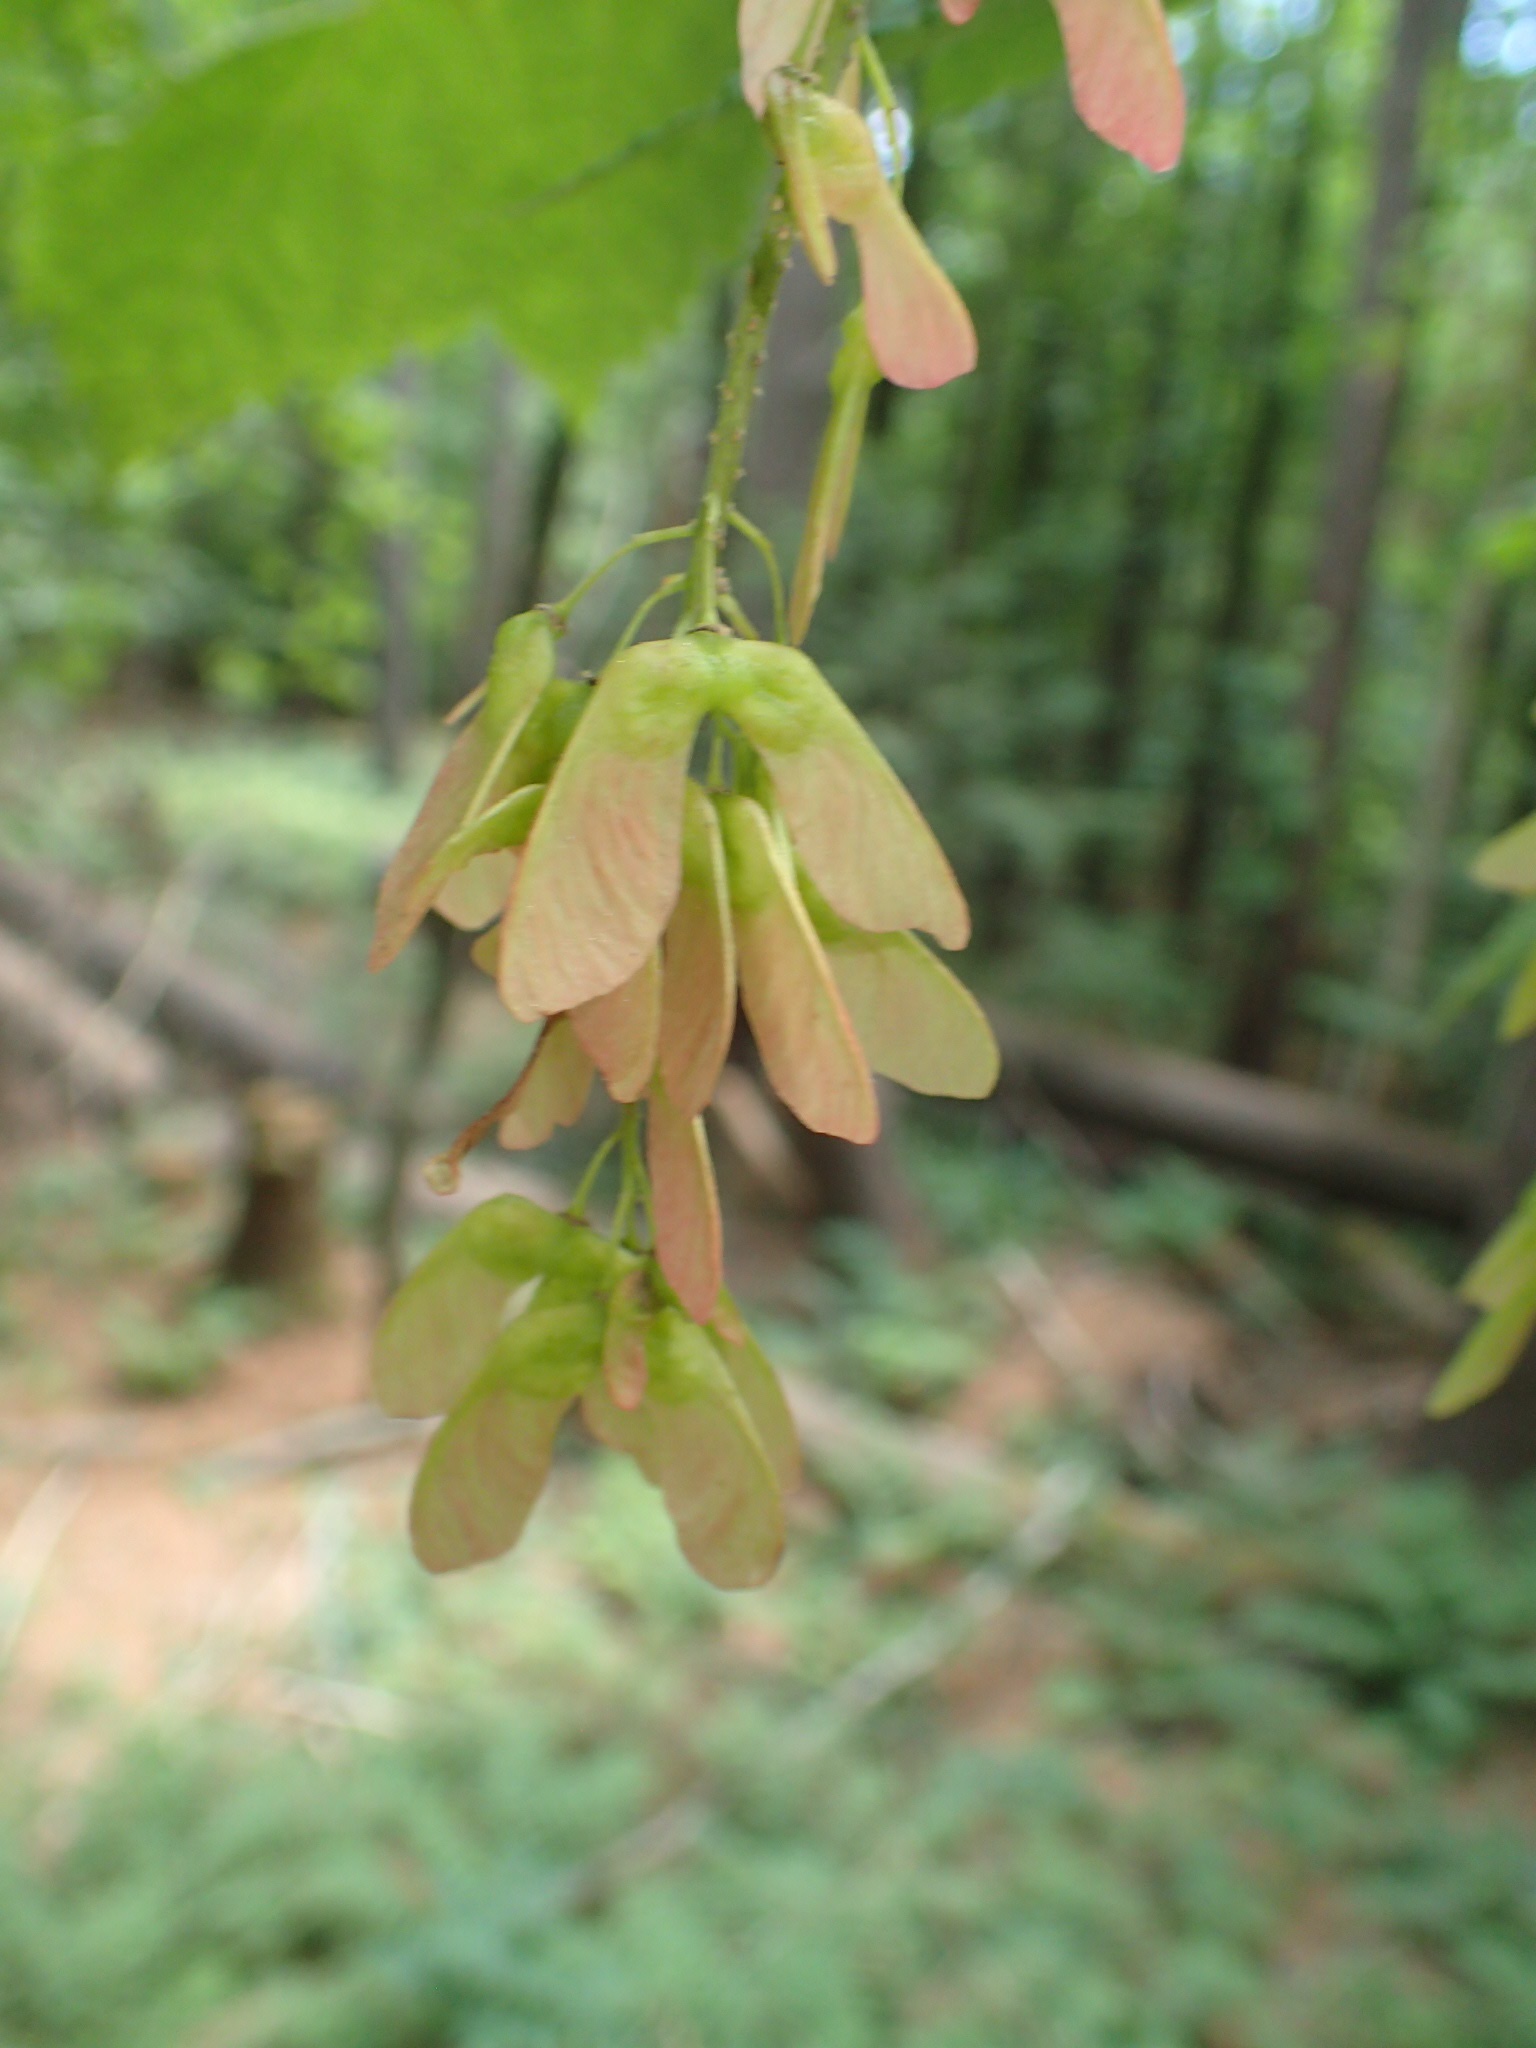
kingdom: Plantae
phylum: Tracheophyta
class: Magnoliopsida
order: Sapindales
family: Sapindaceae
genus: Acer
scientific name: Acer spicatum
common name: Mountain maple
